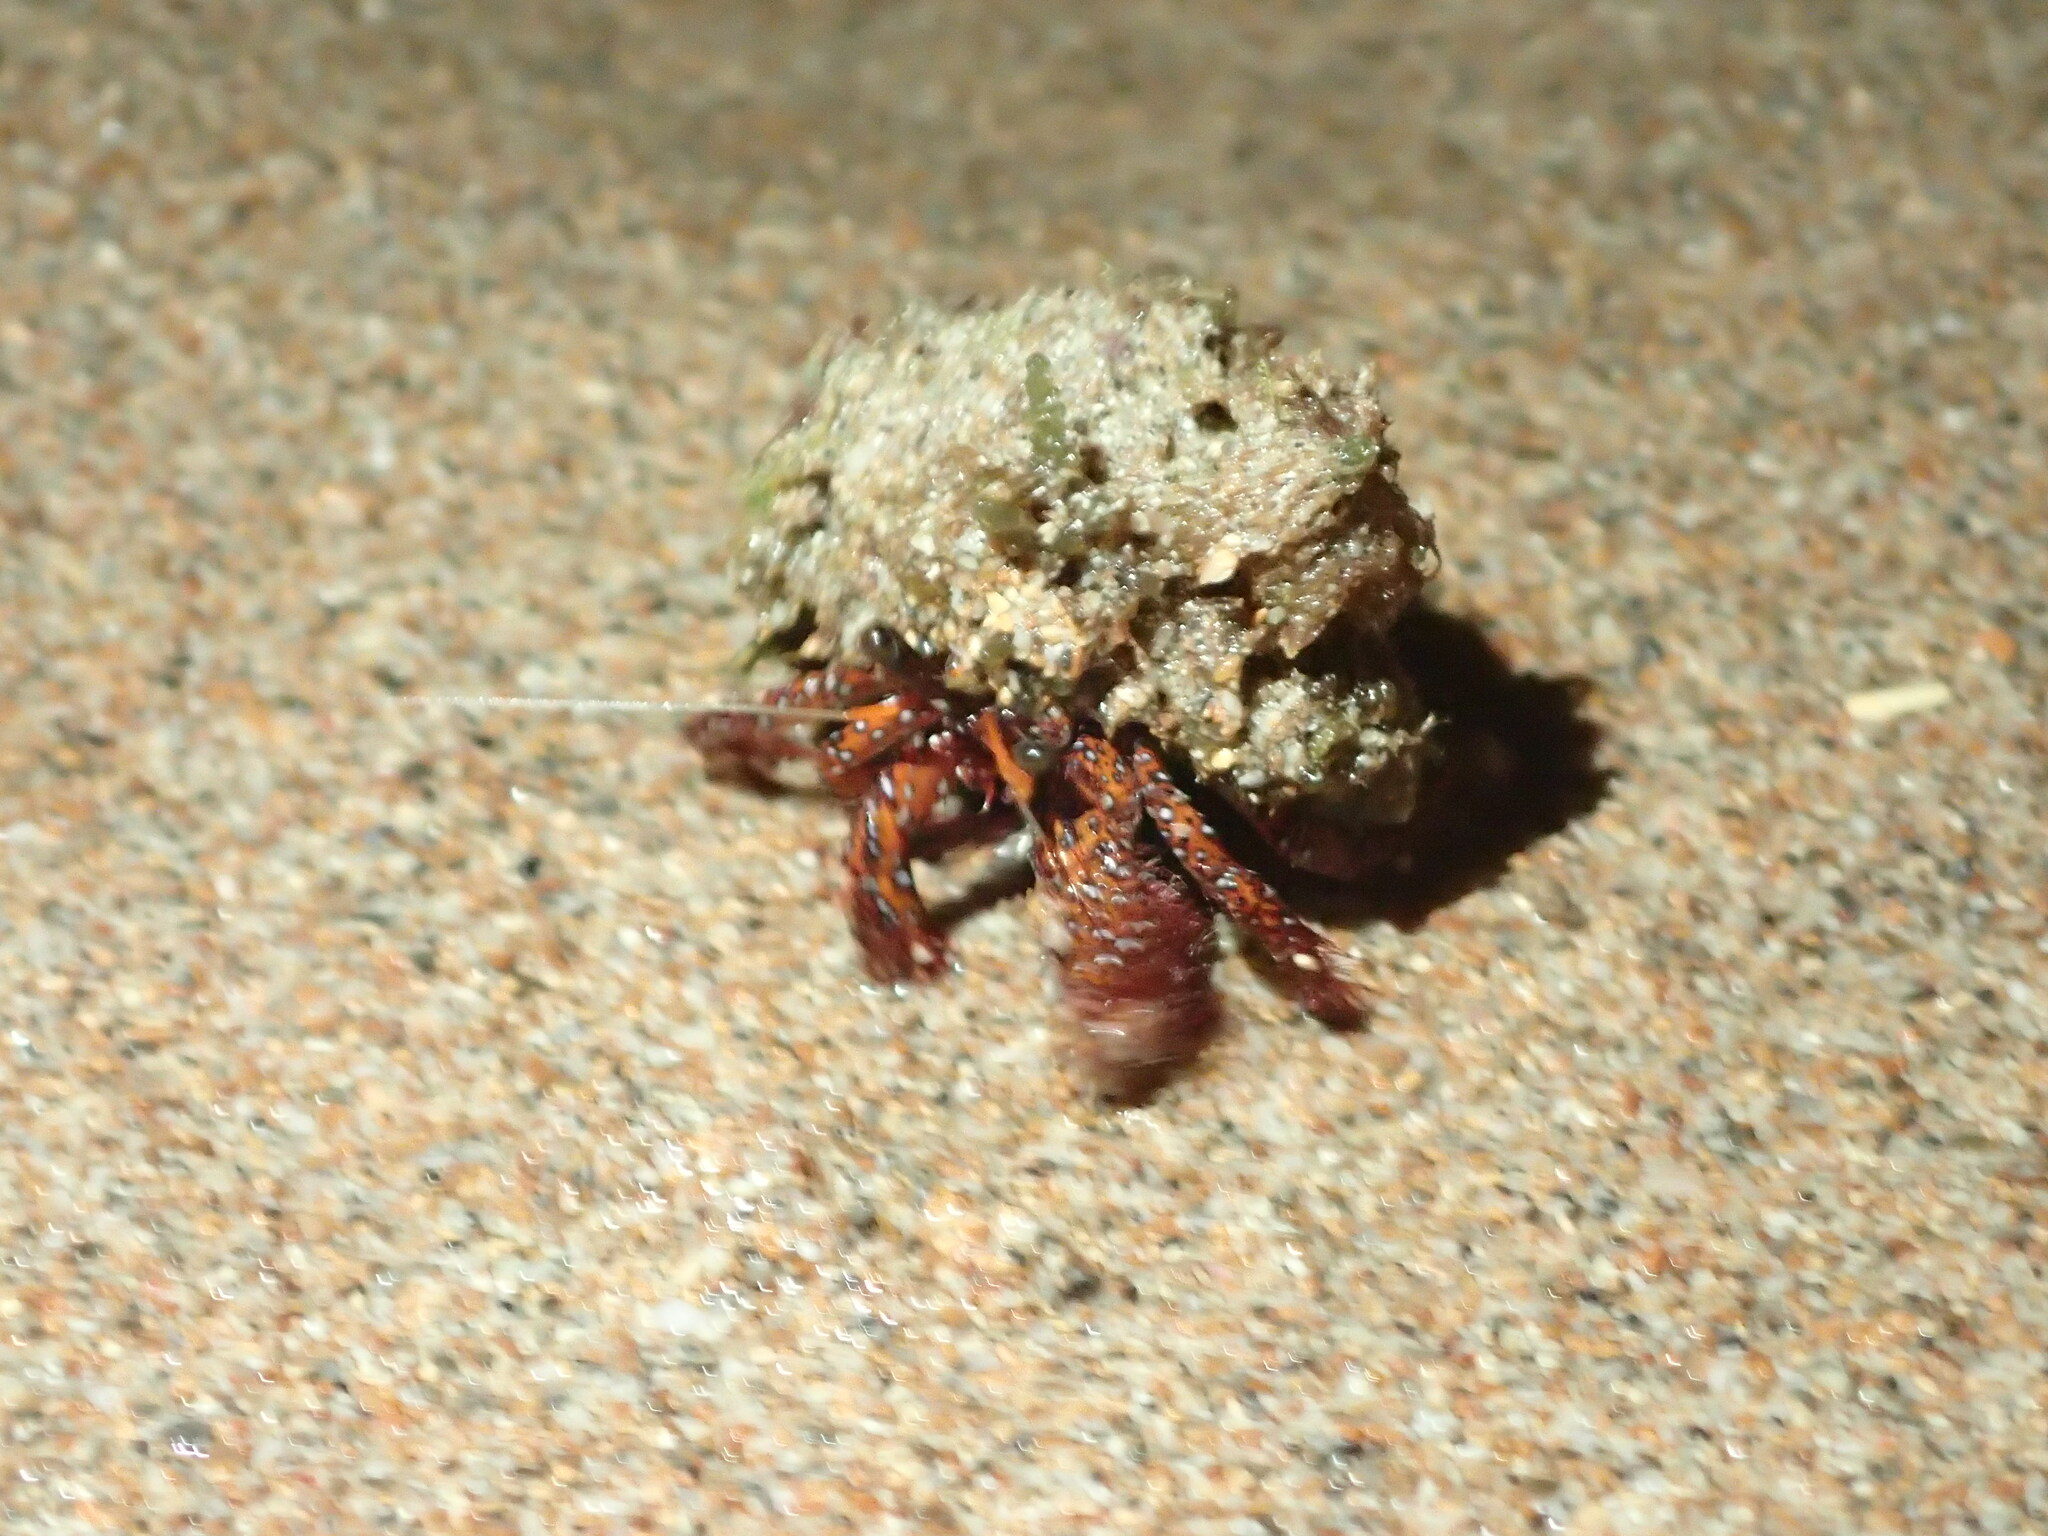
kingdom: Animalia
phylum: Arthropoda
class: Malacostraca
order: Decapoda
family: Diogenidae
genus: Dardanus
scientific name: Dardanus megistos
